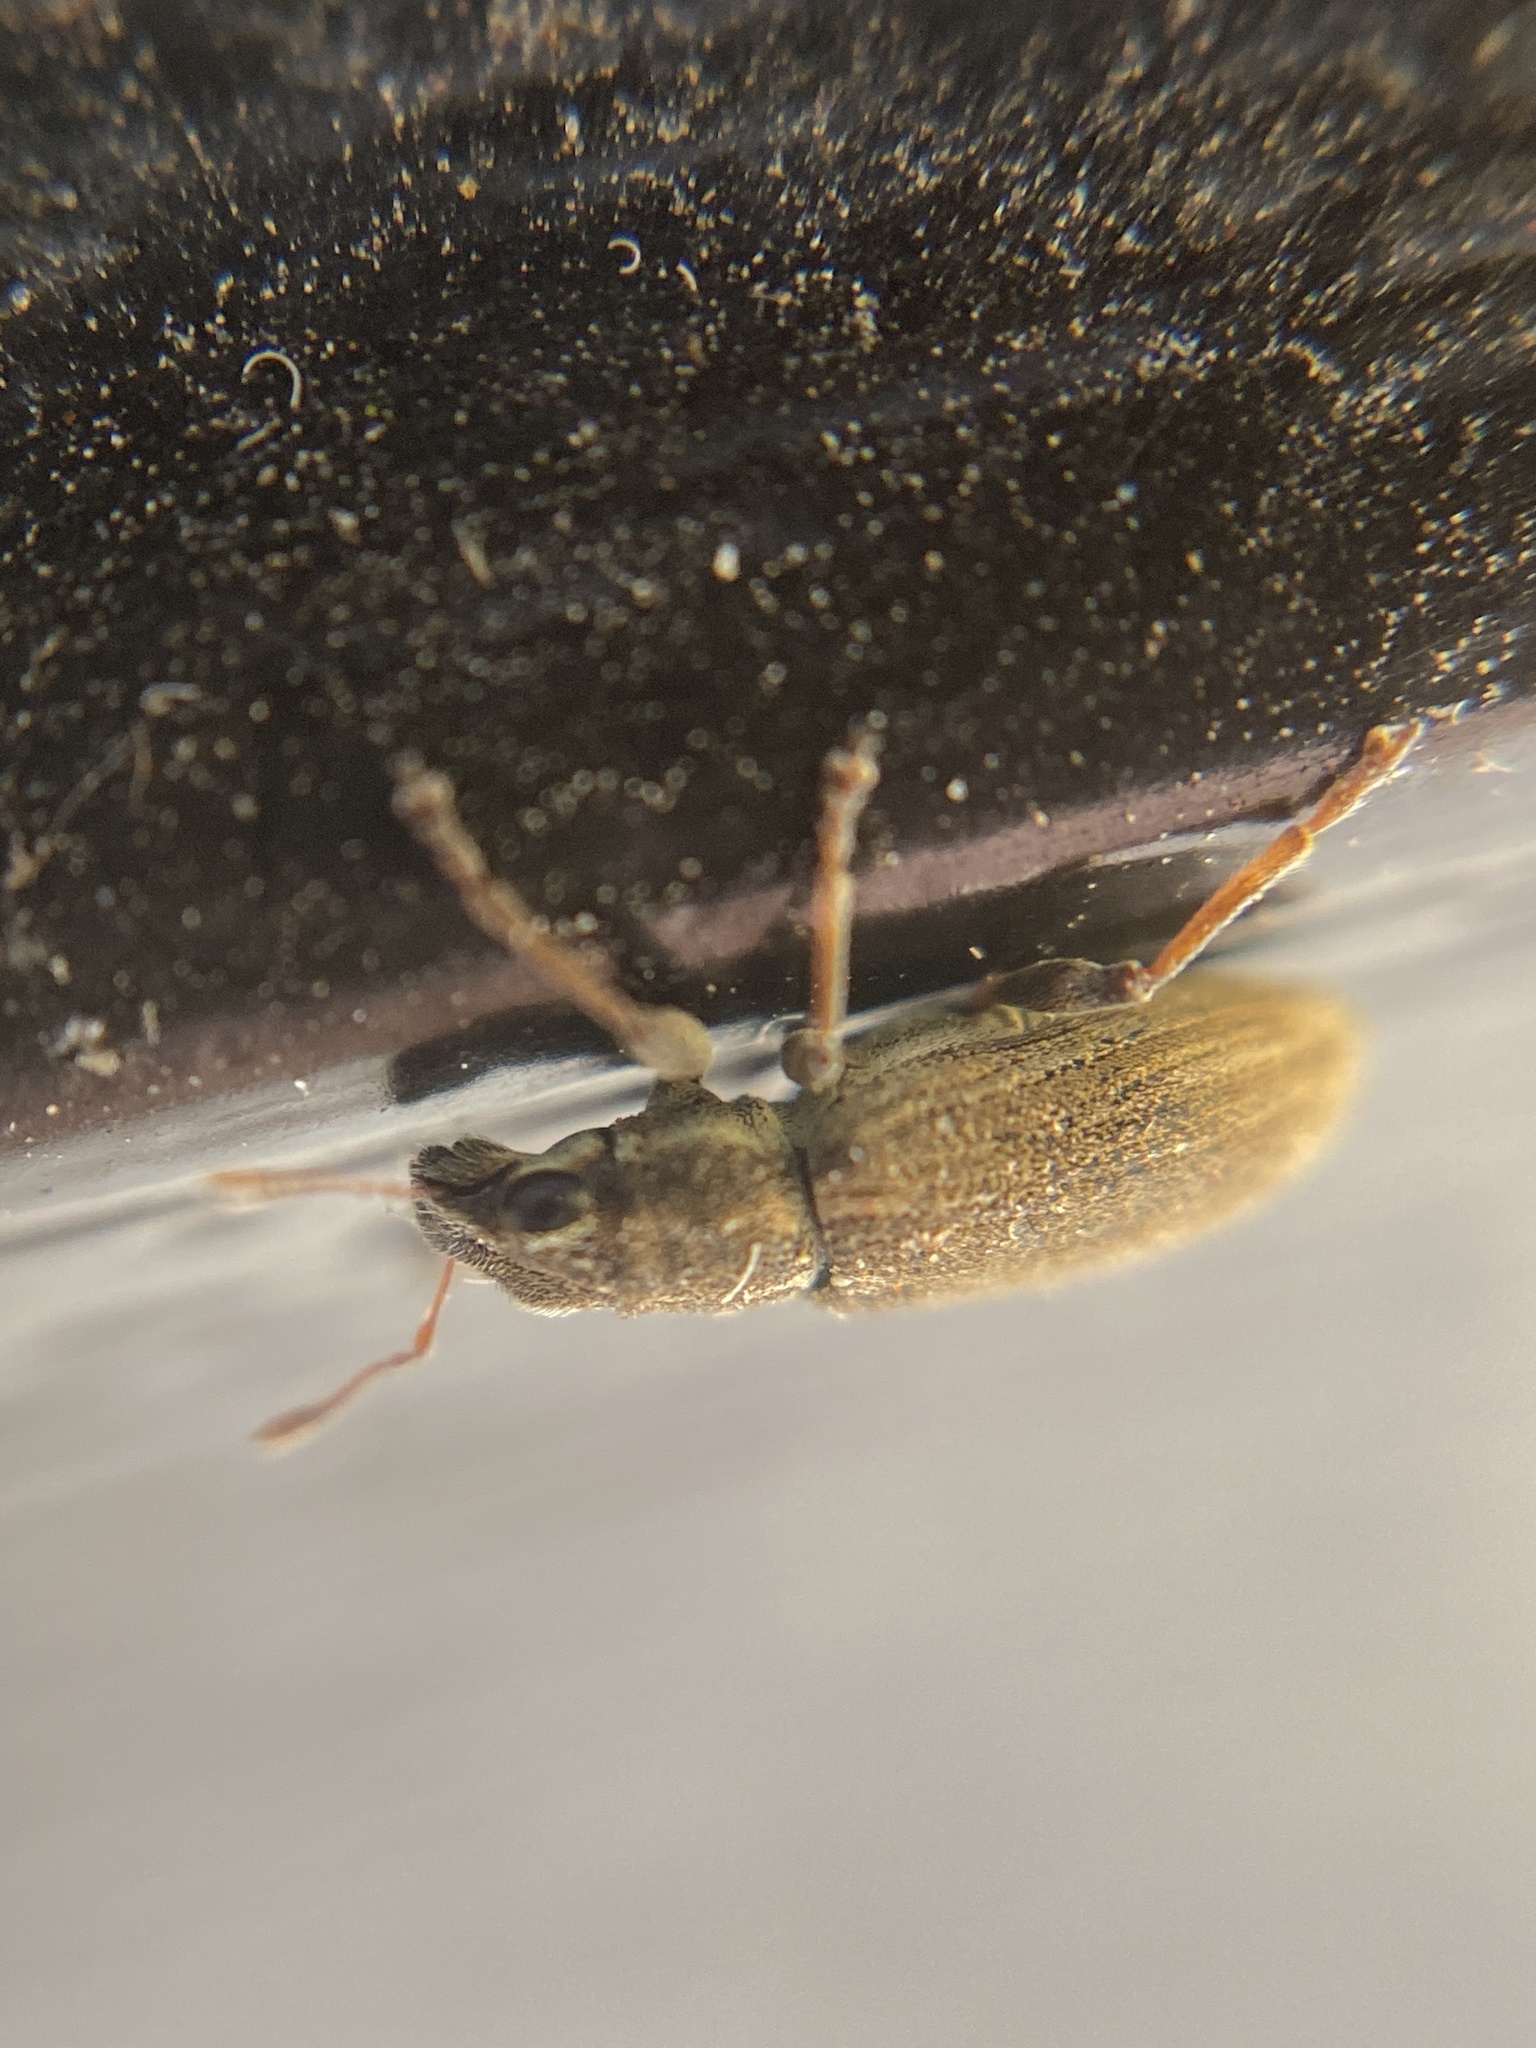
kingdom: Animalia
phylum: Arthropoda
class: Insecta
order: Coleoptera
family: Curculionidae
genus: Sitona
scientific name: Sitona lineatus
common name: Weevil
